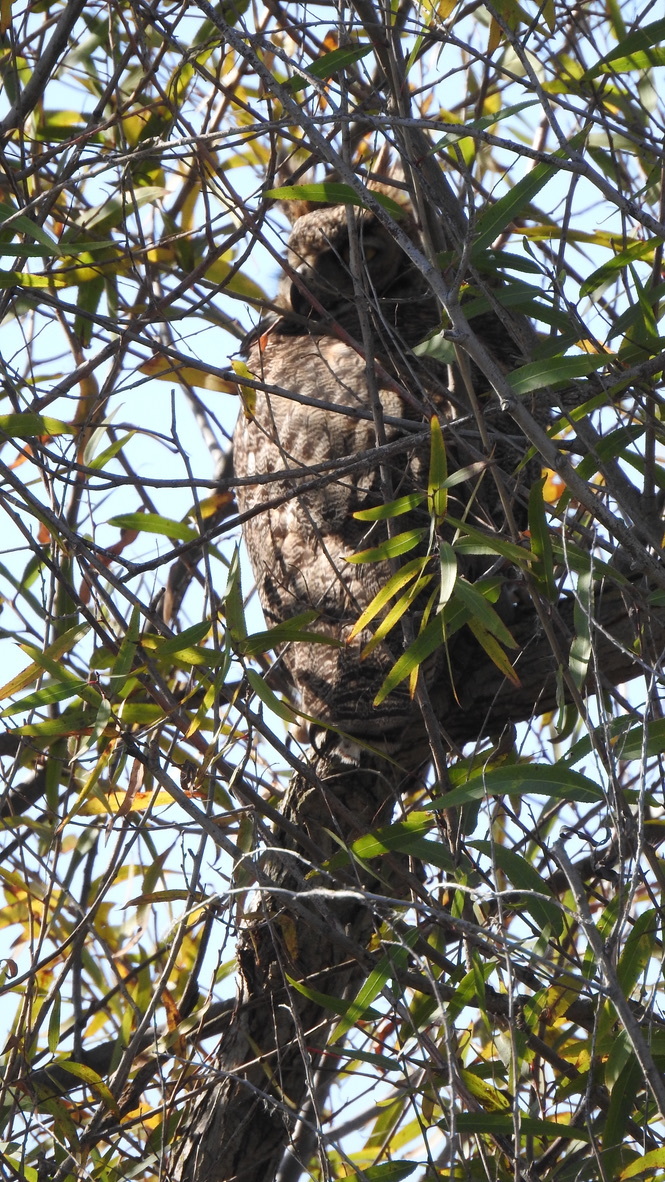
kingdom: Animalia
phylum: Chordata
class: Aves
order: Strigiformes
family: Strigidae
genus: Bubo
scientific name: Bubo virginianus
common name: Great horned owl
